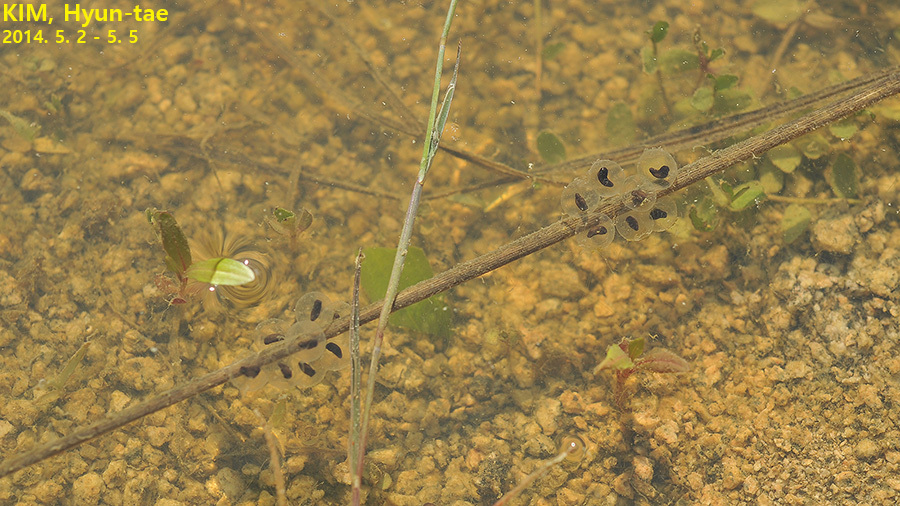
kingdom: Animalia
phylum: Chordata
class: Amphibia
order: Anura
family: Bombinatoridae
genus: Bombina
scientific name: Bombina orientalis
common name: Oriental firebelly toad
